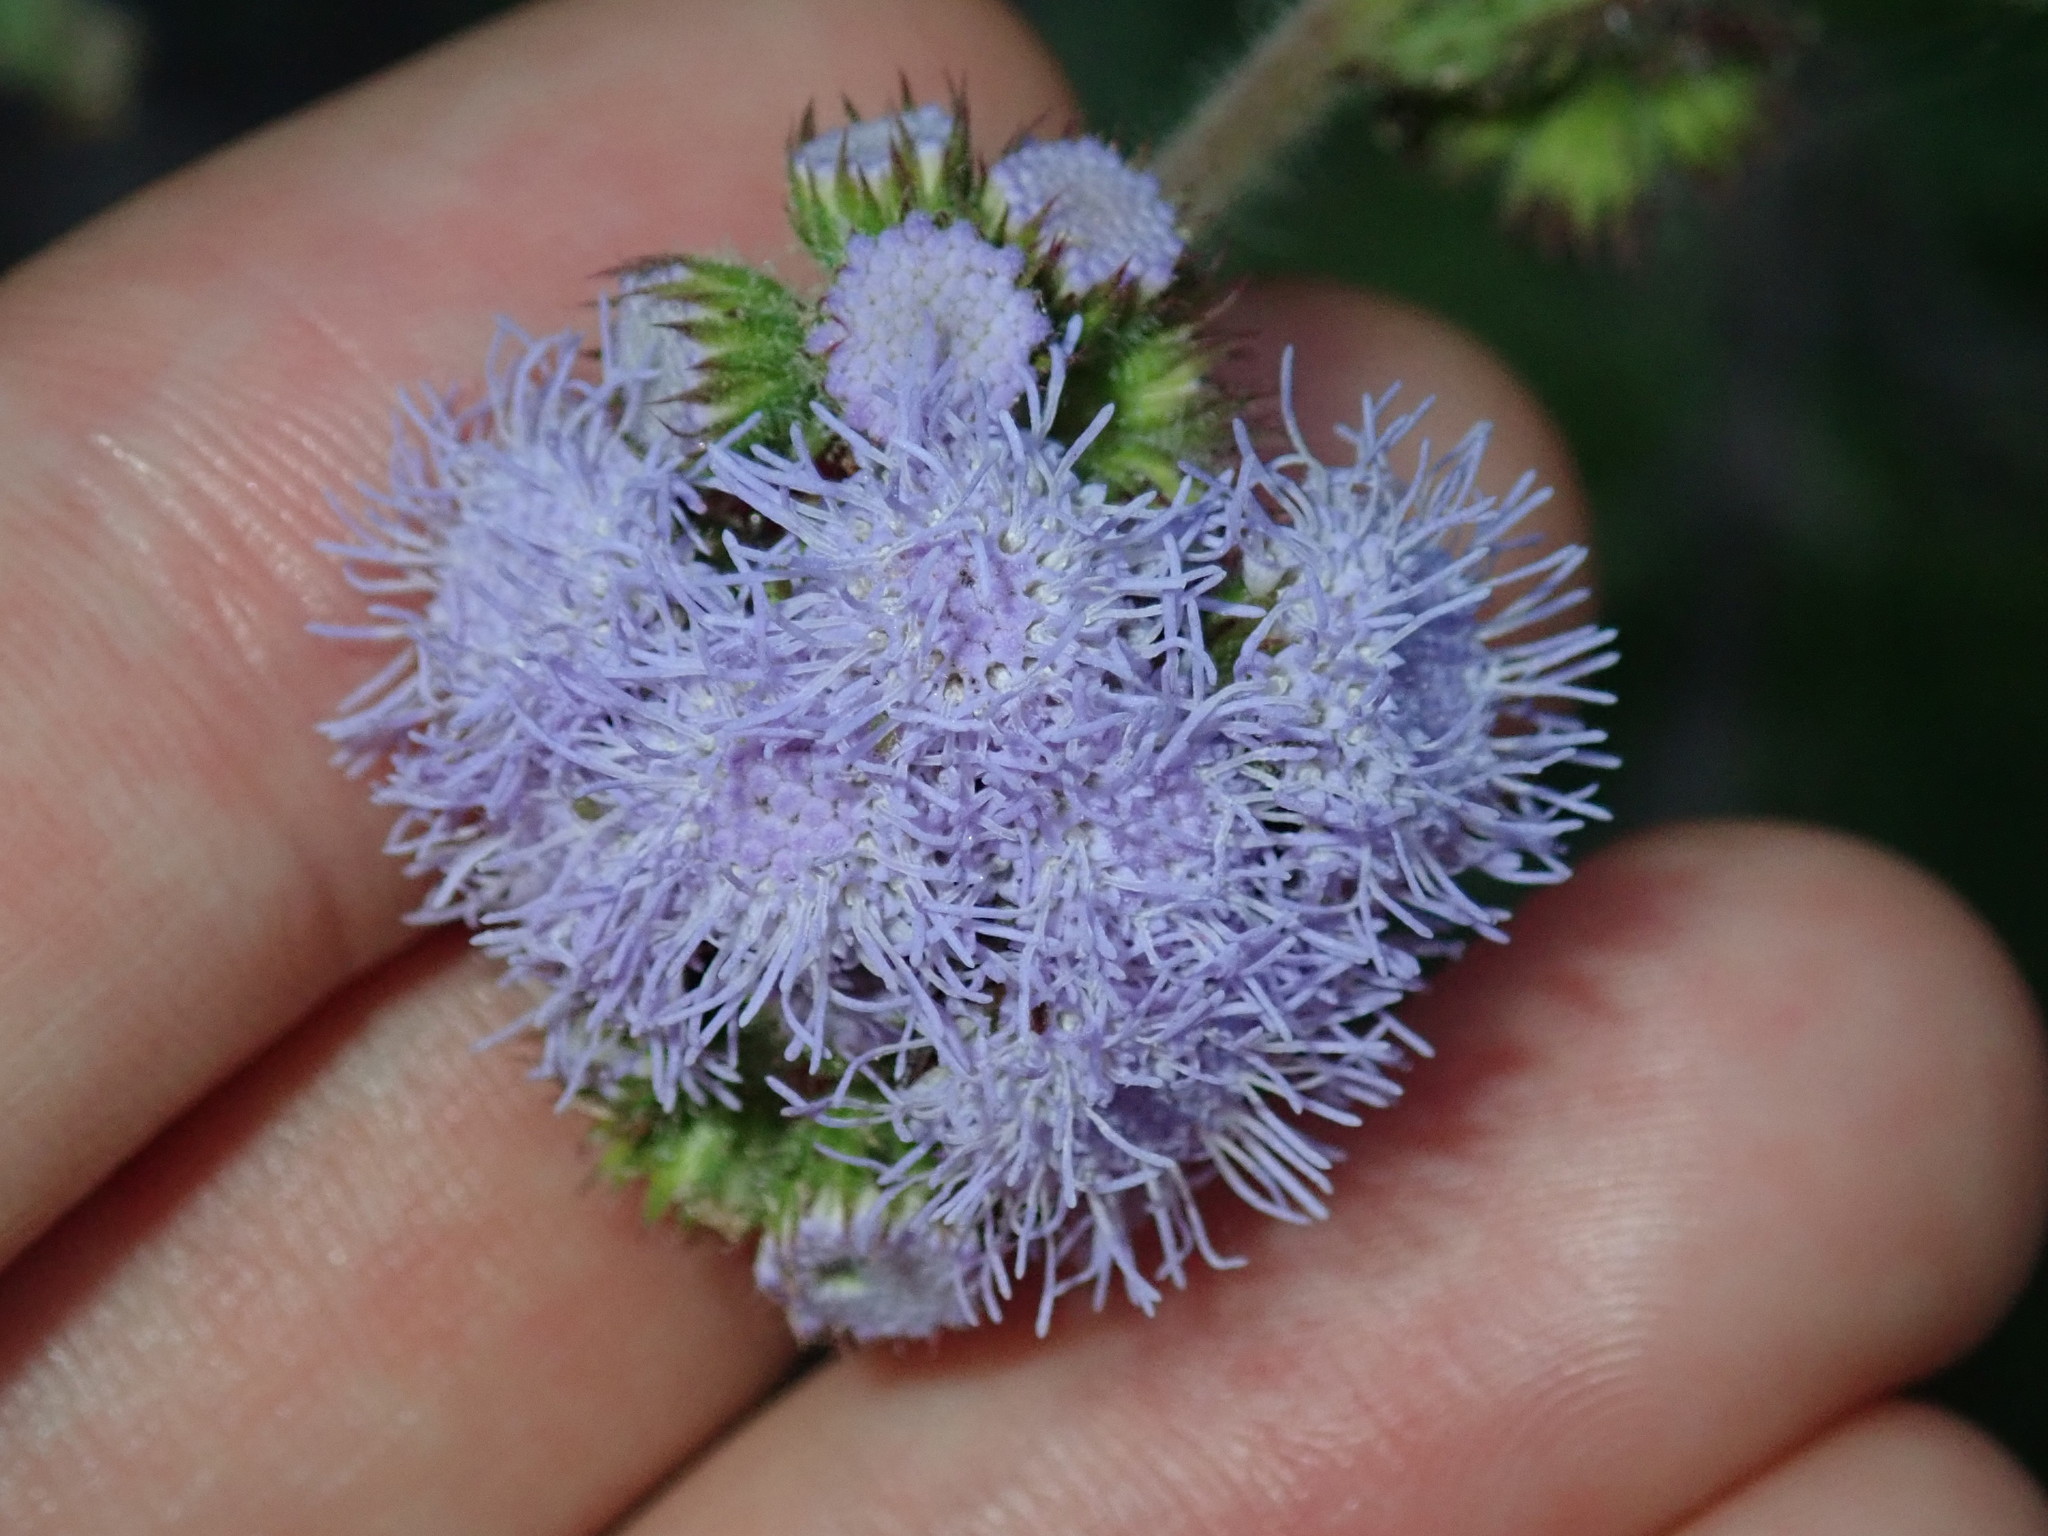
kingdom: Plantae
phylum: Tracheophyta
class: Magnoliopsida
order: Asterales
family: Asteraceae
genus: Ageratum
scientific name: Ageratum houstonianum
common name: Bluemink
